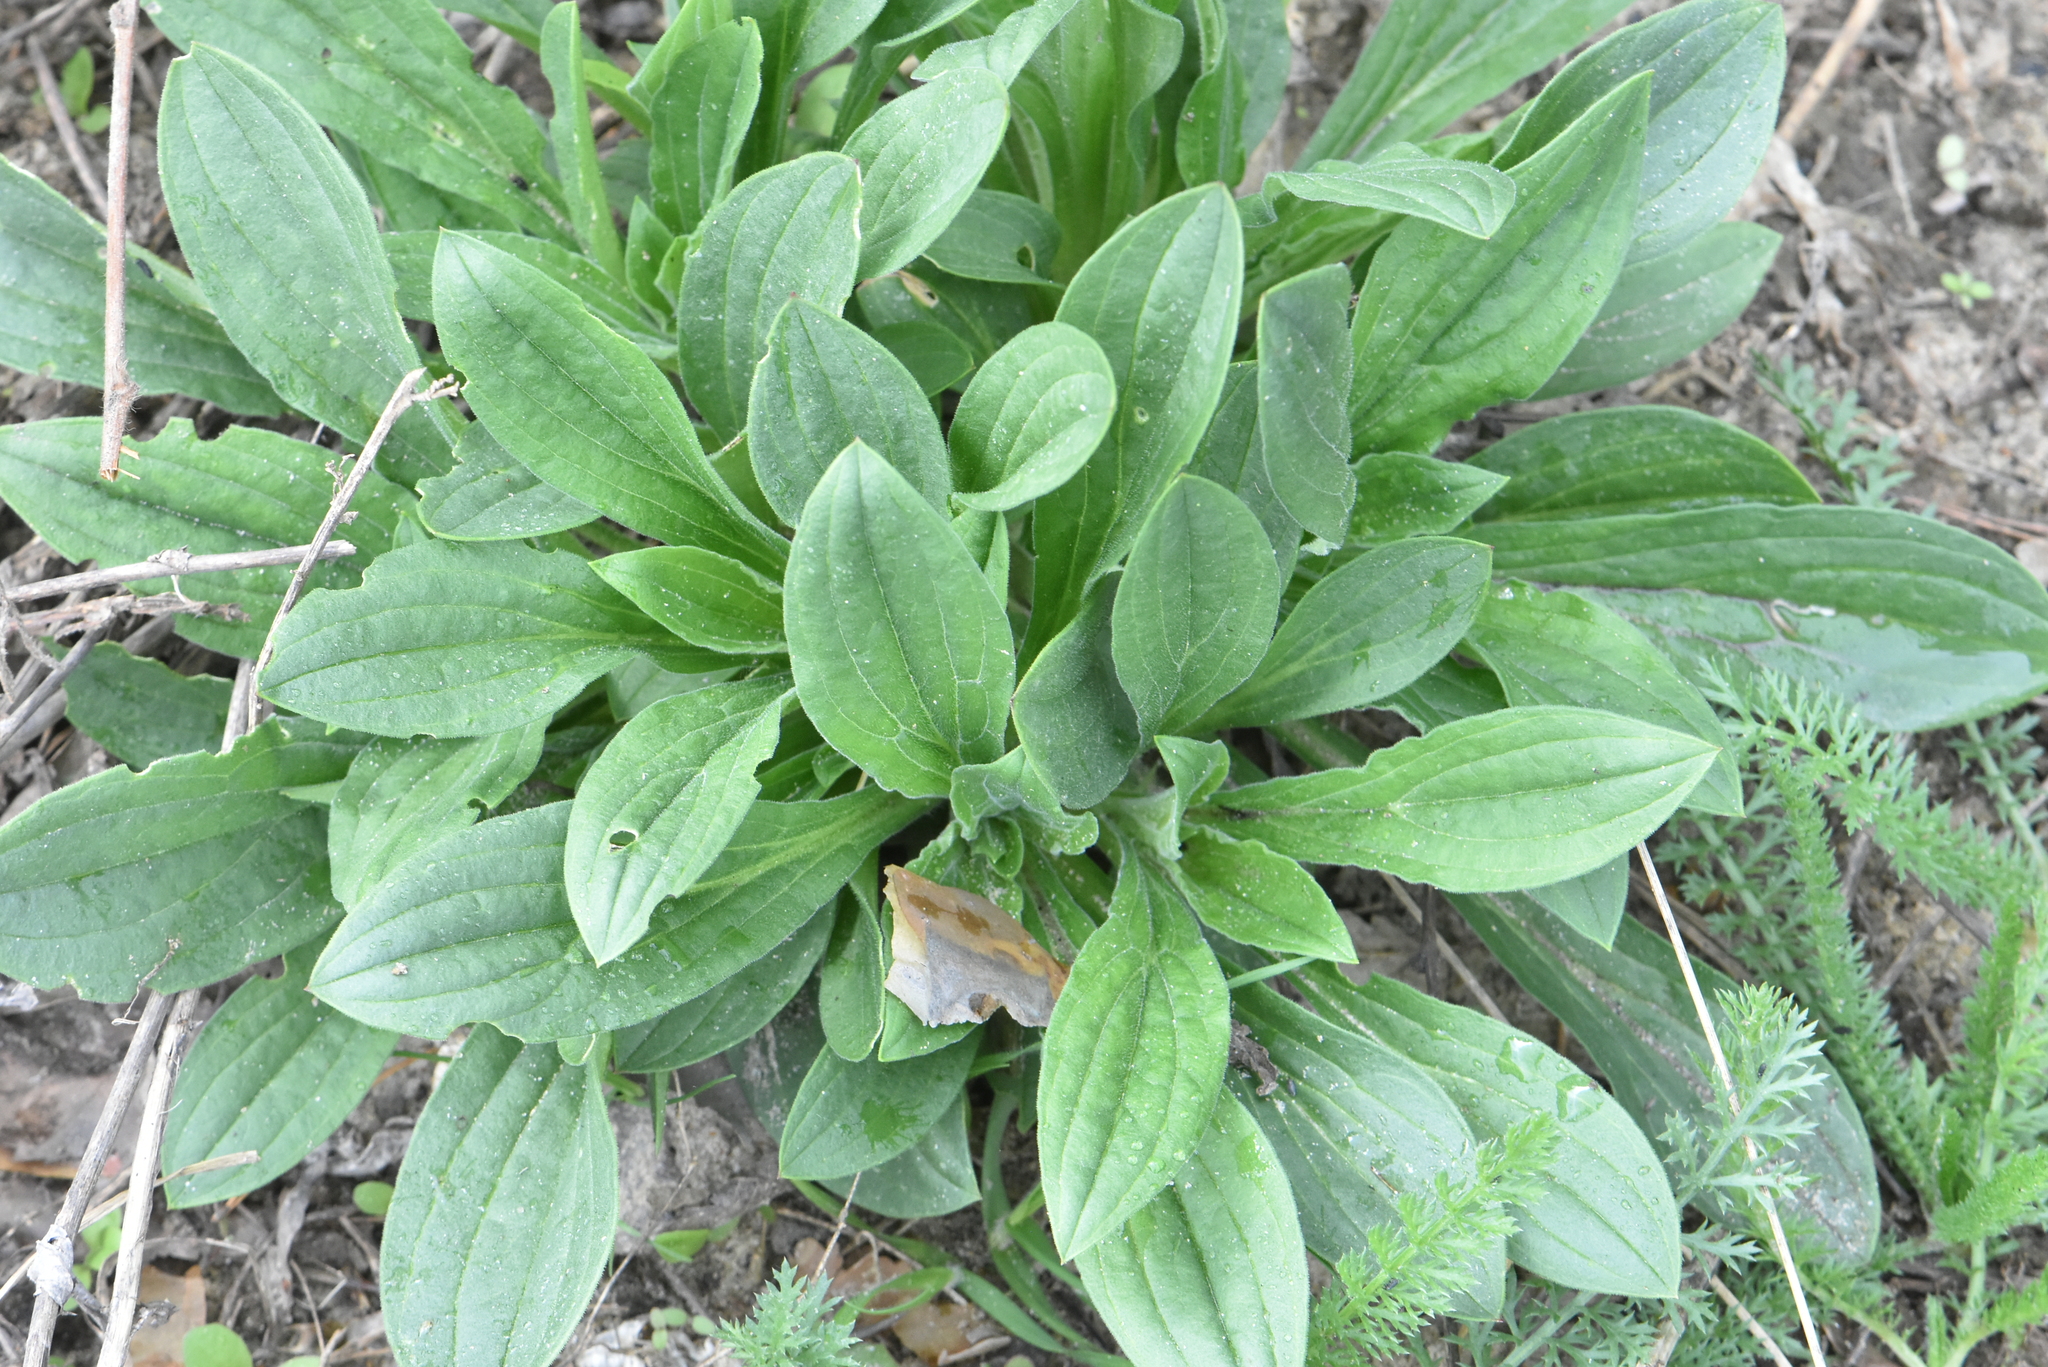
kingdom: Plantae
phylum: Tracheophyta
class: Magnoliopsida
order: Caryophyllales
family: Caryophyllaceae
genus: Silene
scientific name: Silene latifolia
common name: White campion
